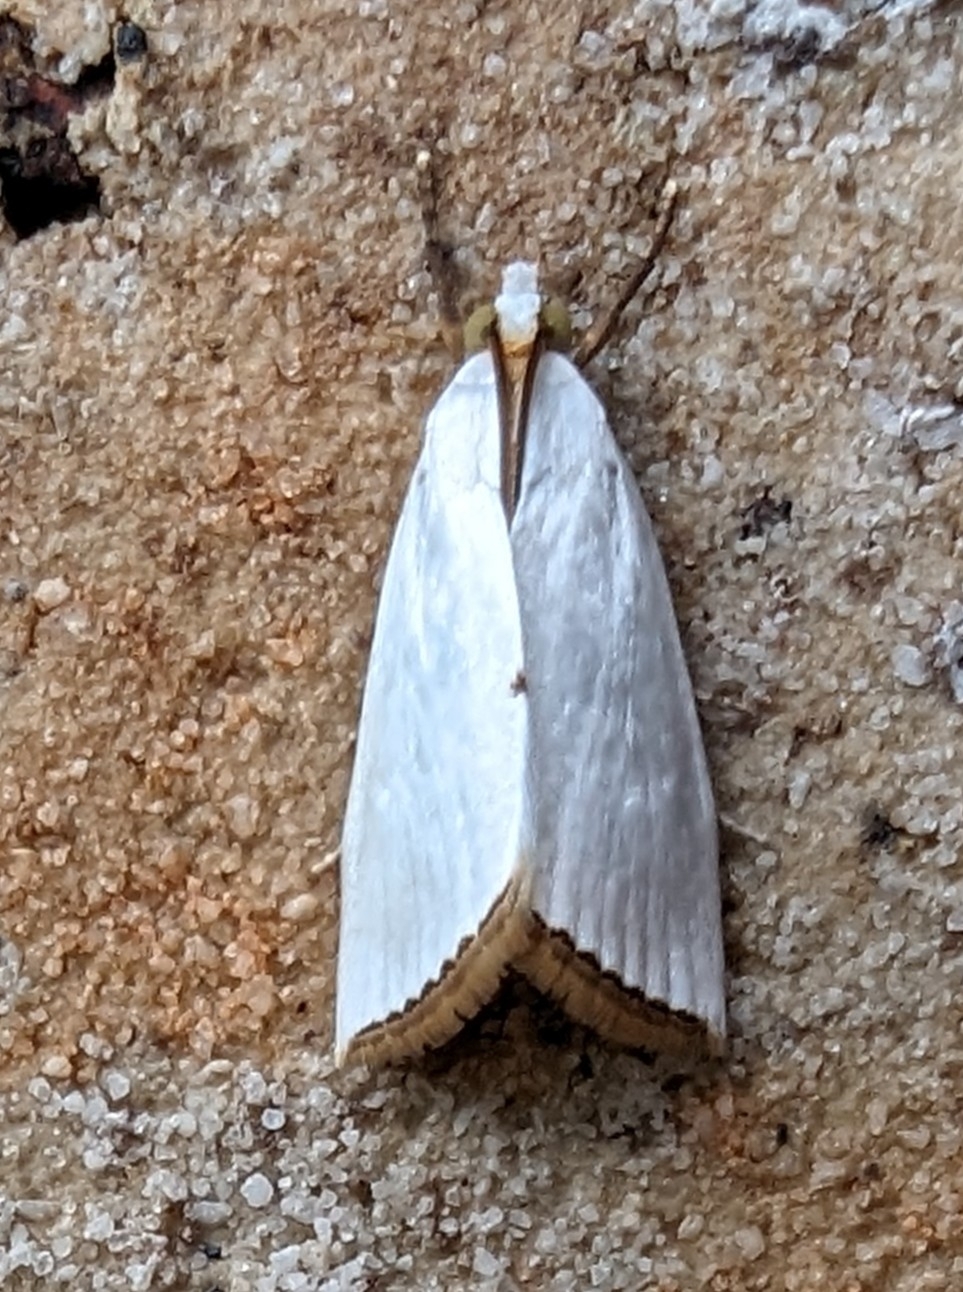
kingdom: Animalia
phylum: Arthropoda
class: Insecta
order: Lepidoptera
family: Crambidae
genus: Argyria
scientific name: Argyria nivalis
